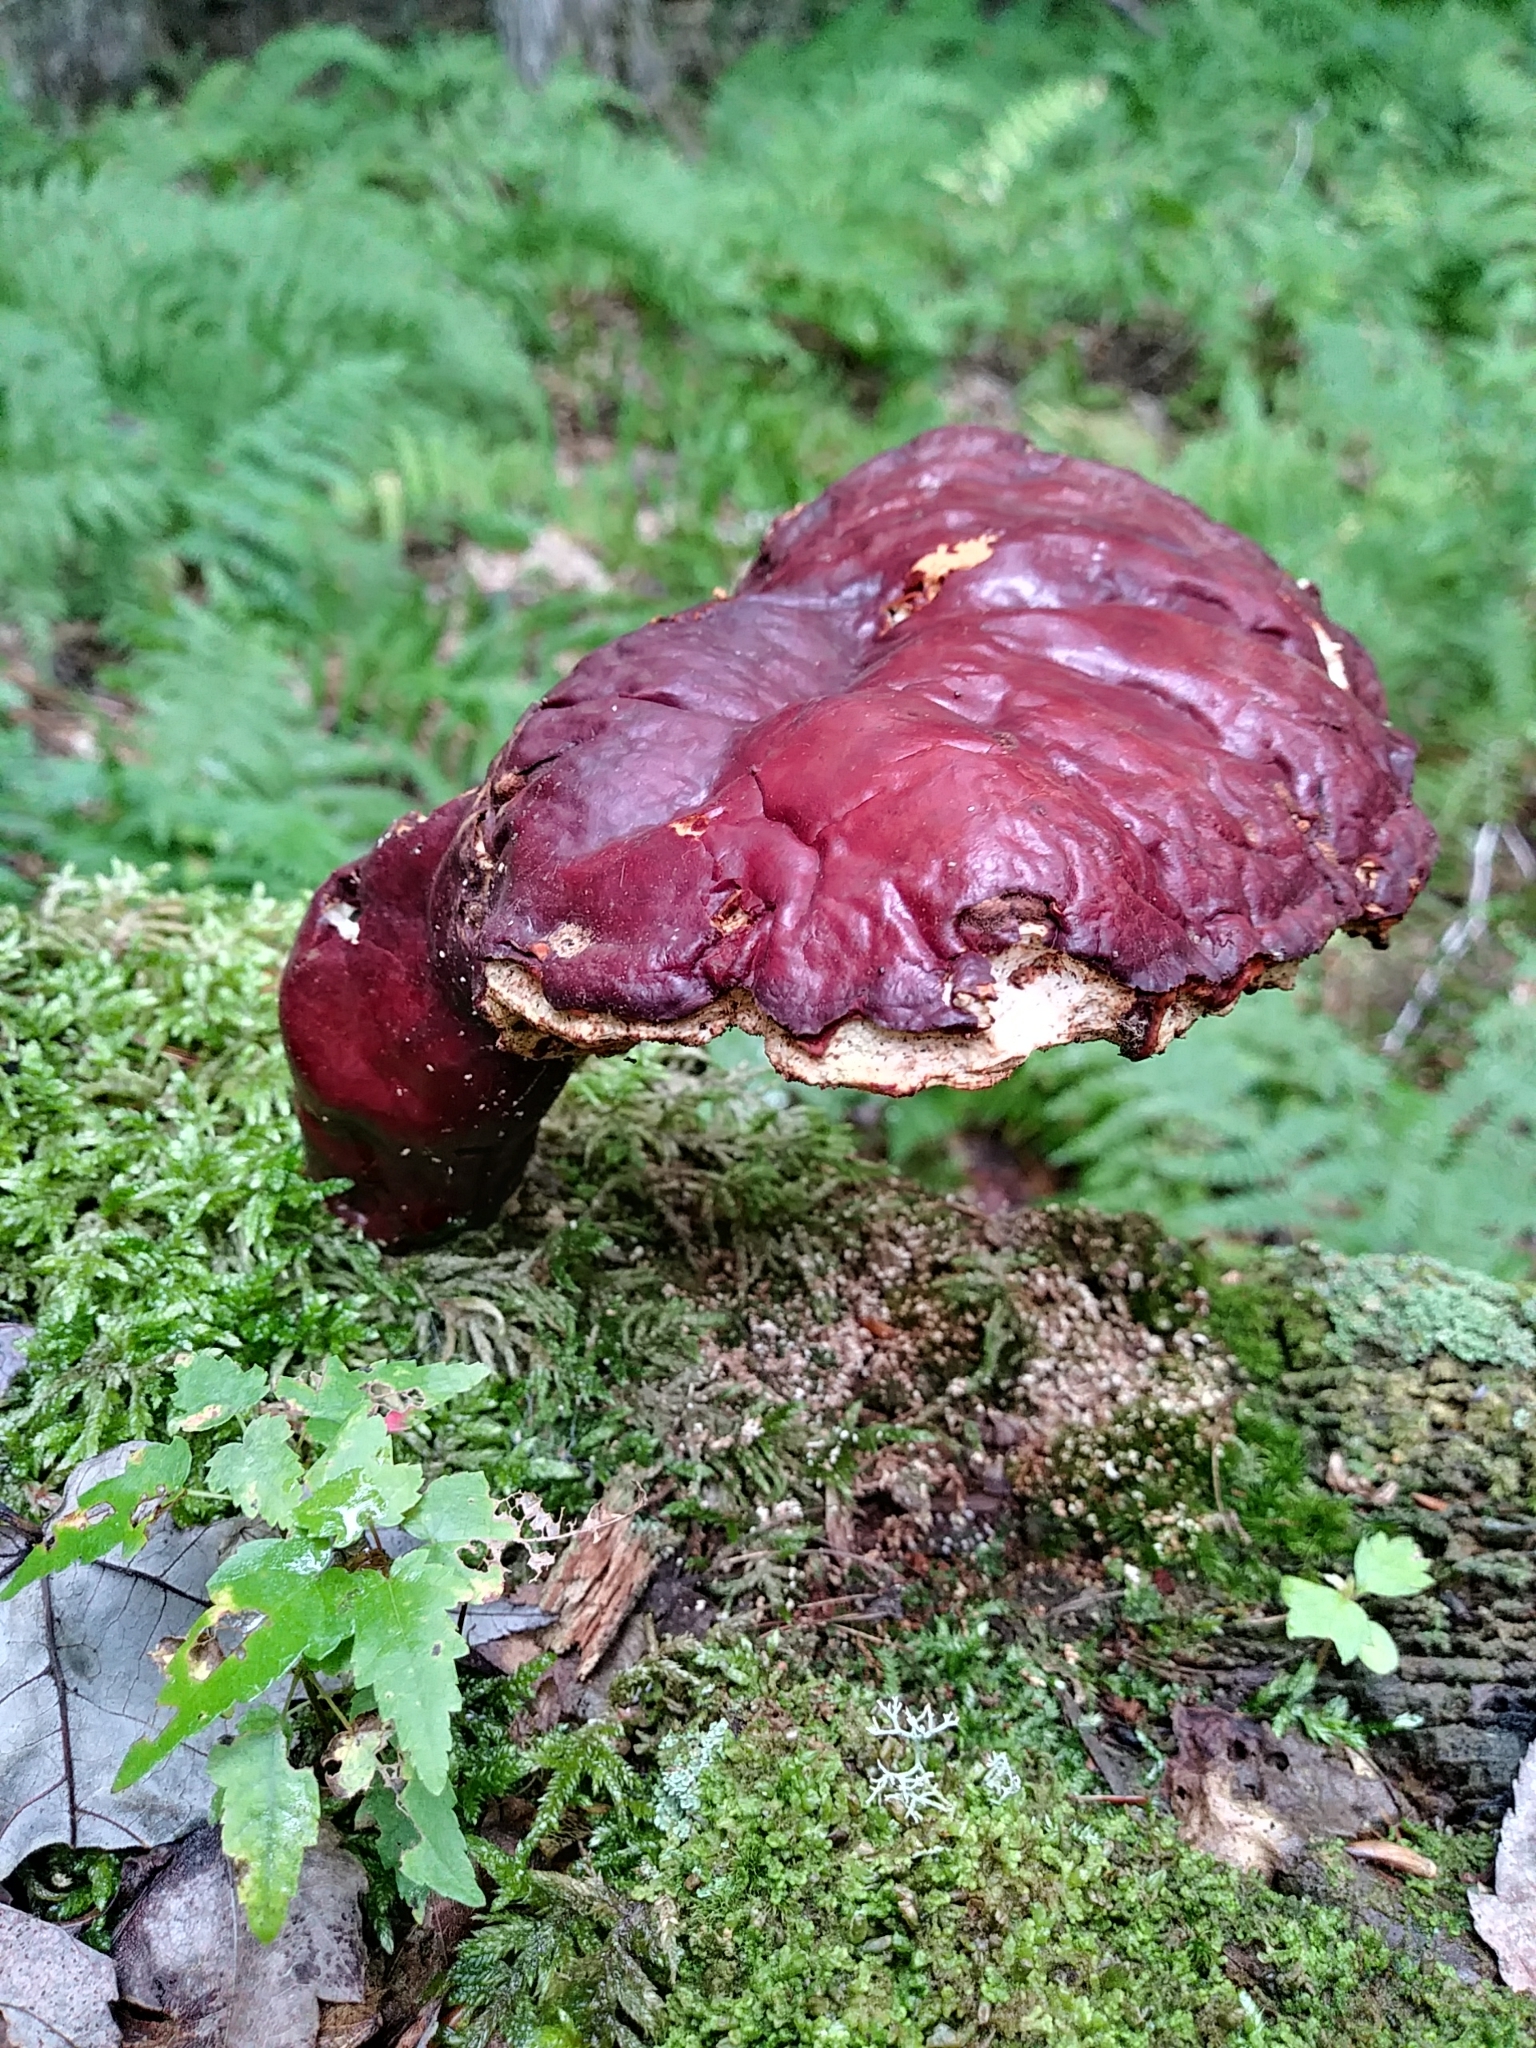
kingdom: Fungi
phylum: Basidiomycota
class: Agaricomycetes
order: Polyporales
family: Polyporaceae
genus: Ganoderma
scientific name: Ganoderma tsugae
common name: Hemlock varnish shelf
